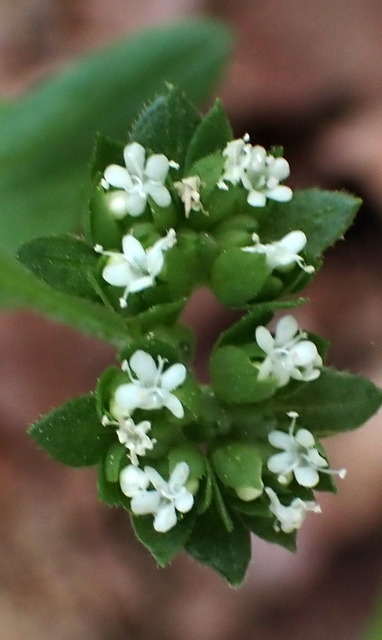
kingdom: Plantae
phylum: Tracheophyta
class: Magnoliopsida
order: Dipsacales
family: Caprifoliaceae
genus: Valerianella
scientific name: Valerianella radiata
